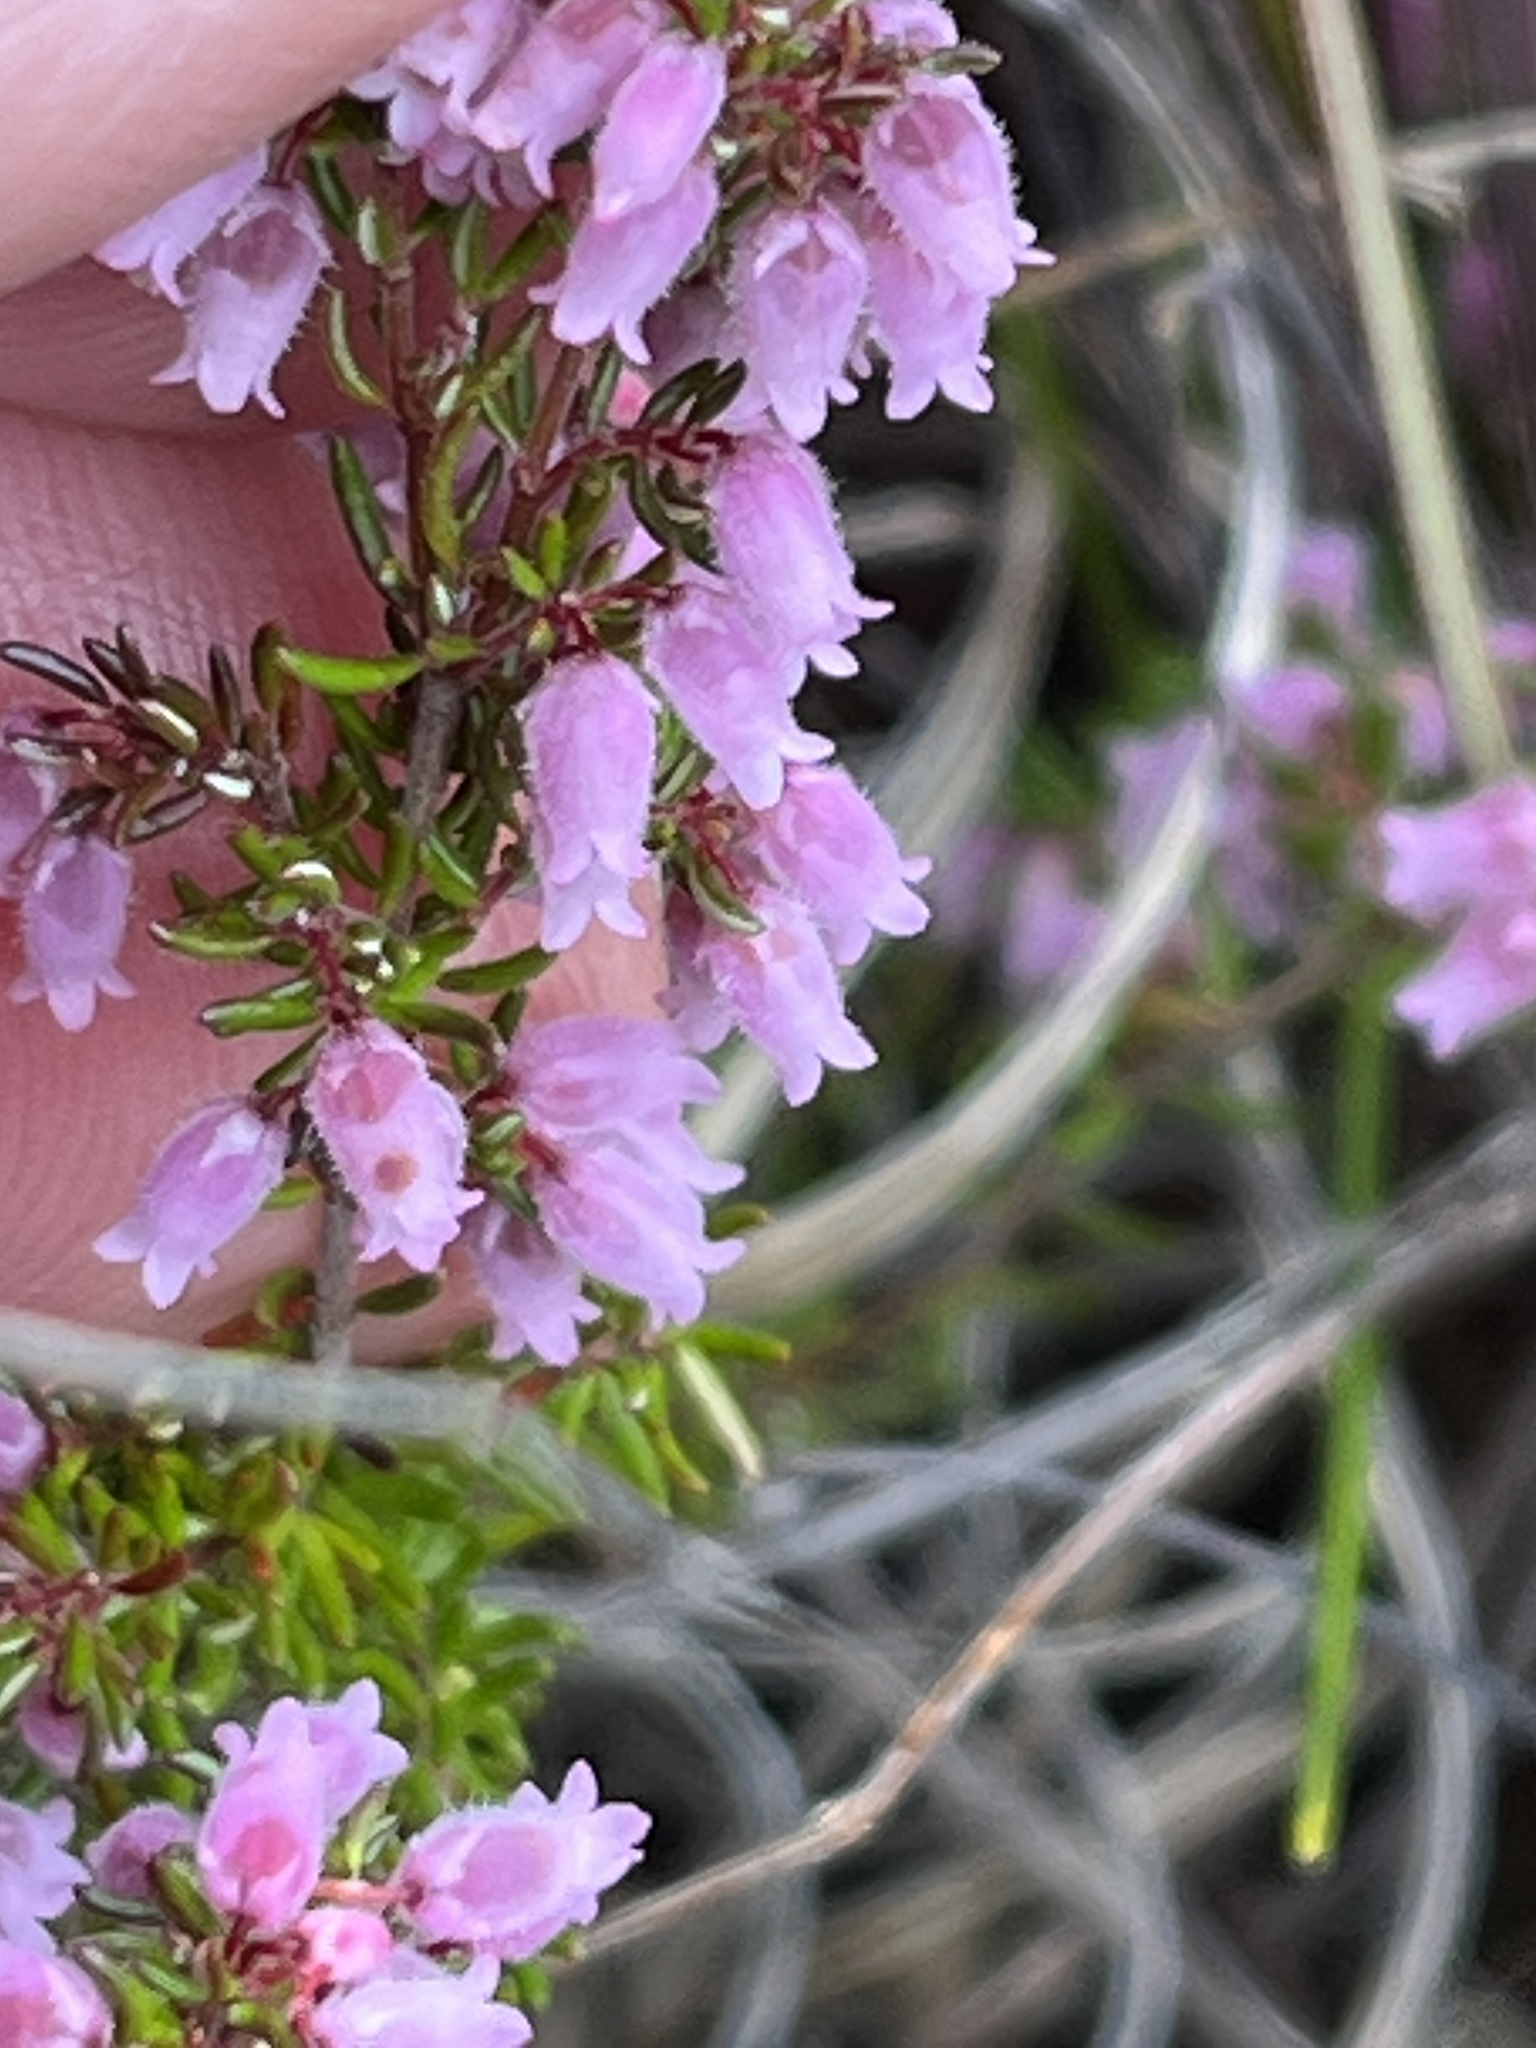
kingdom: Plantae
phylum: Tracheophyta
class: Magnoliopsida
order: Ericales
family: Ericaceae
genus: Erica
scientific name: Erica intervallaris
